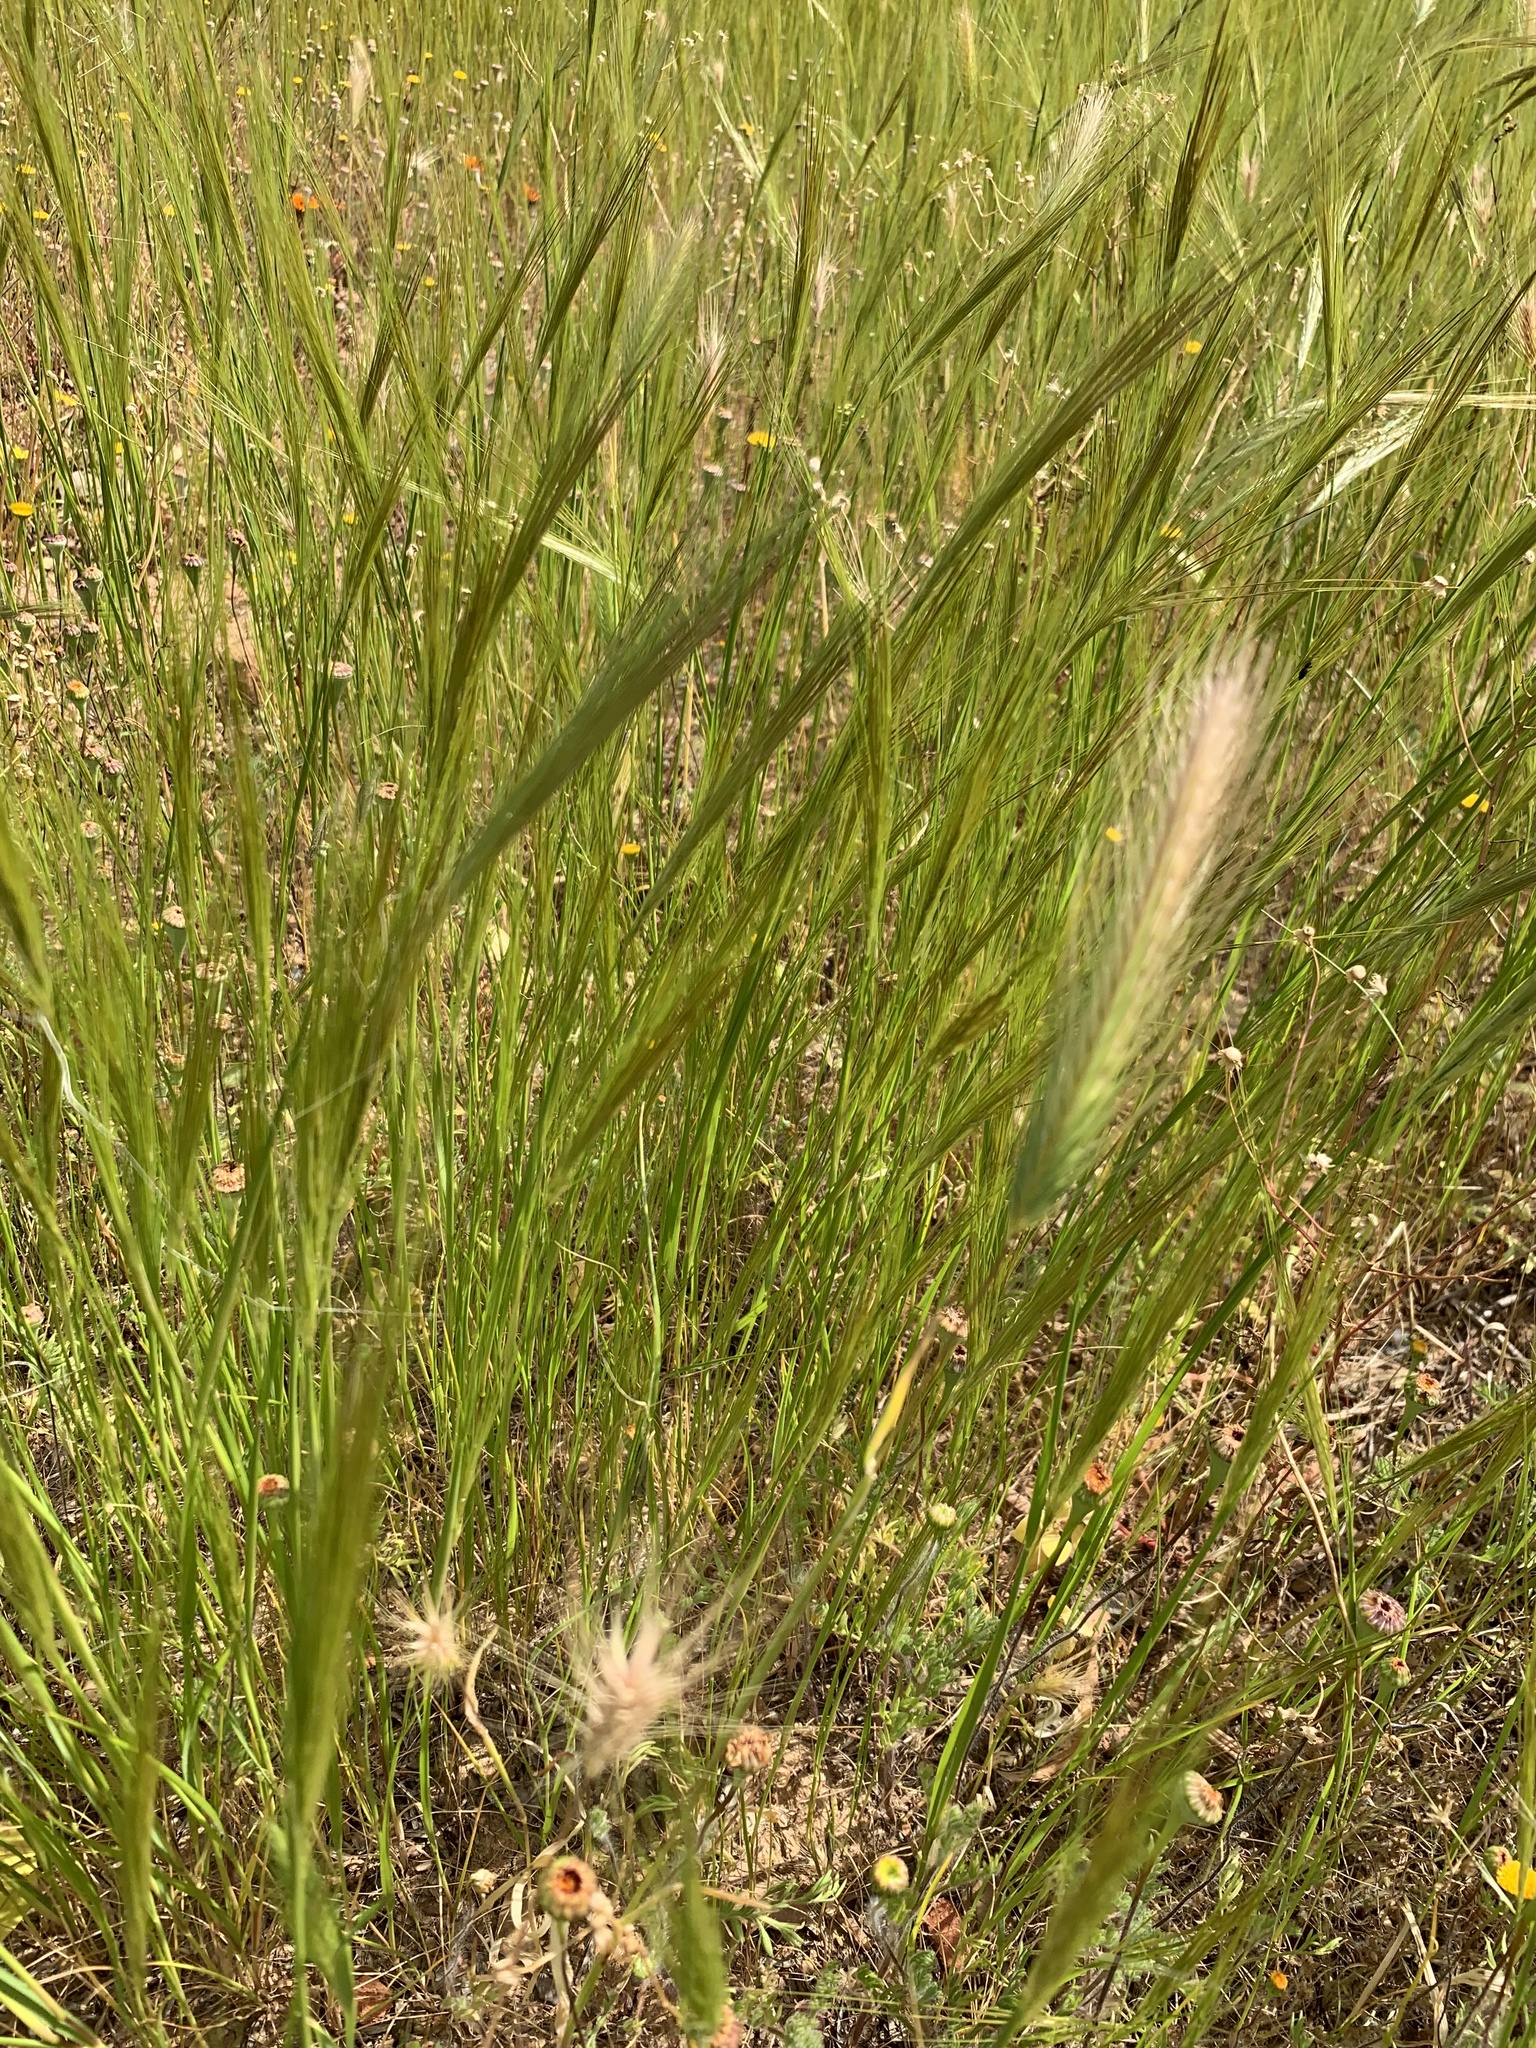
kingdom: Plantae
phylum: Tracheophyta
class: Liliopsida
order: Poales
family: Poaceae
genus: Hordeum
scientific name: Hordeum murinum
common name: Wall barley
